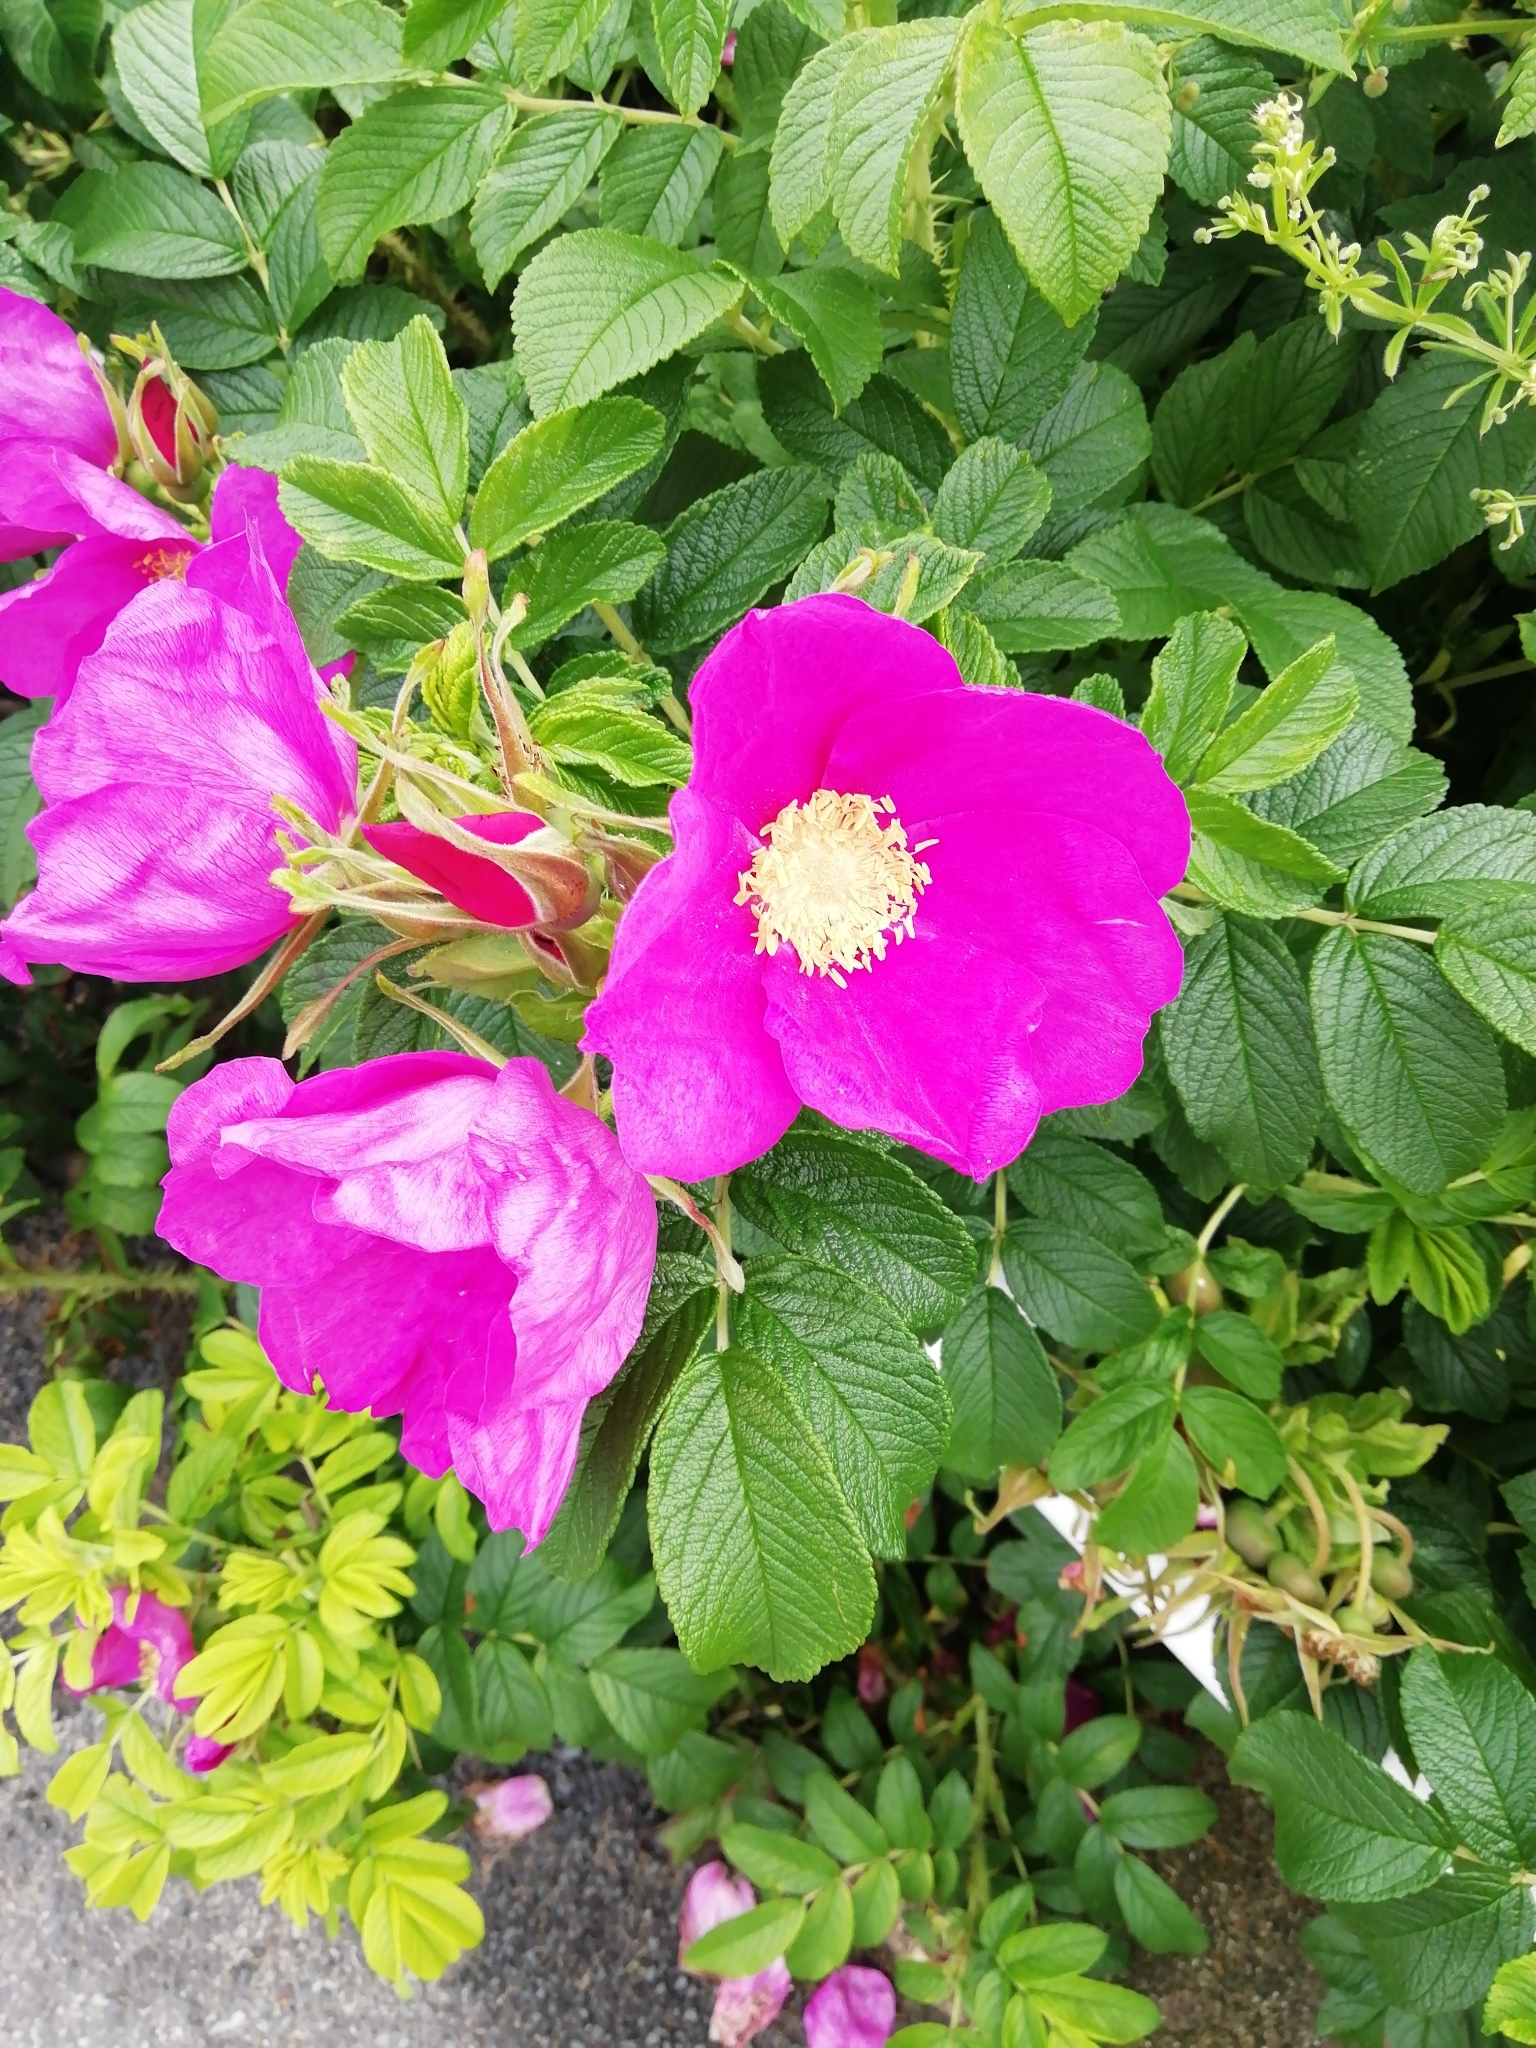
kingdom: Plantae
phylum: Tracheophyta
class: Magnoliopsida
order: Rosales
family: Rosaceae
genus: Rosa
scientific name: Rosa rugosa
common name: Japanese rose
